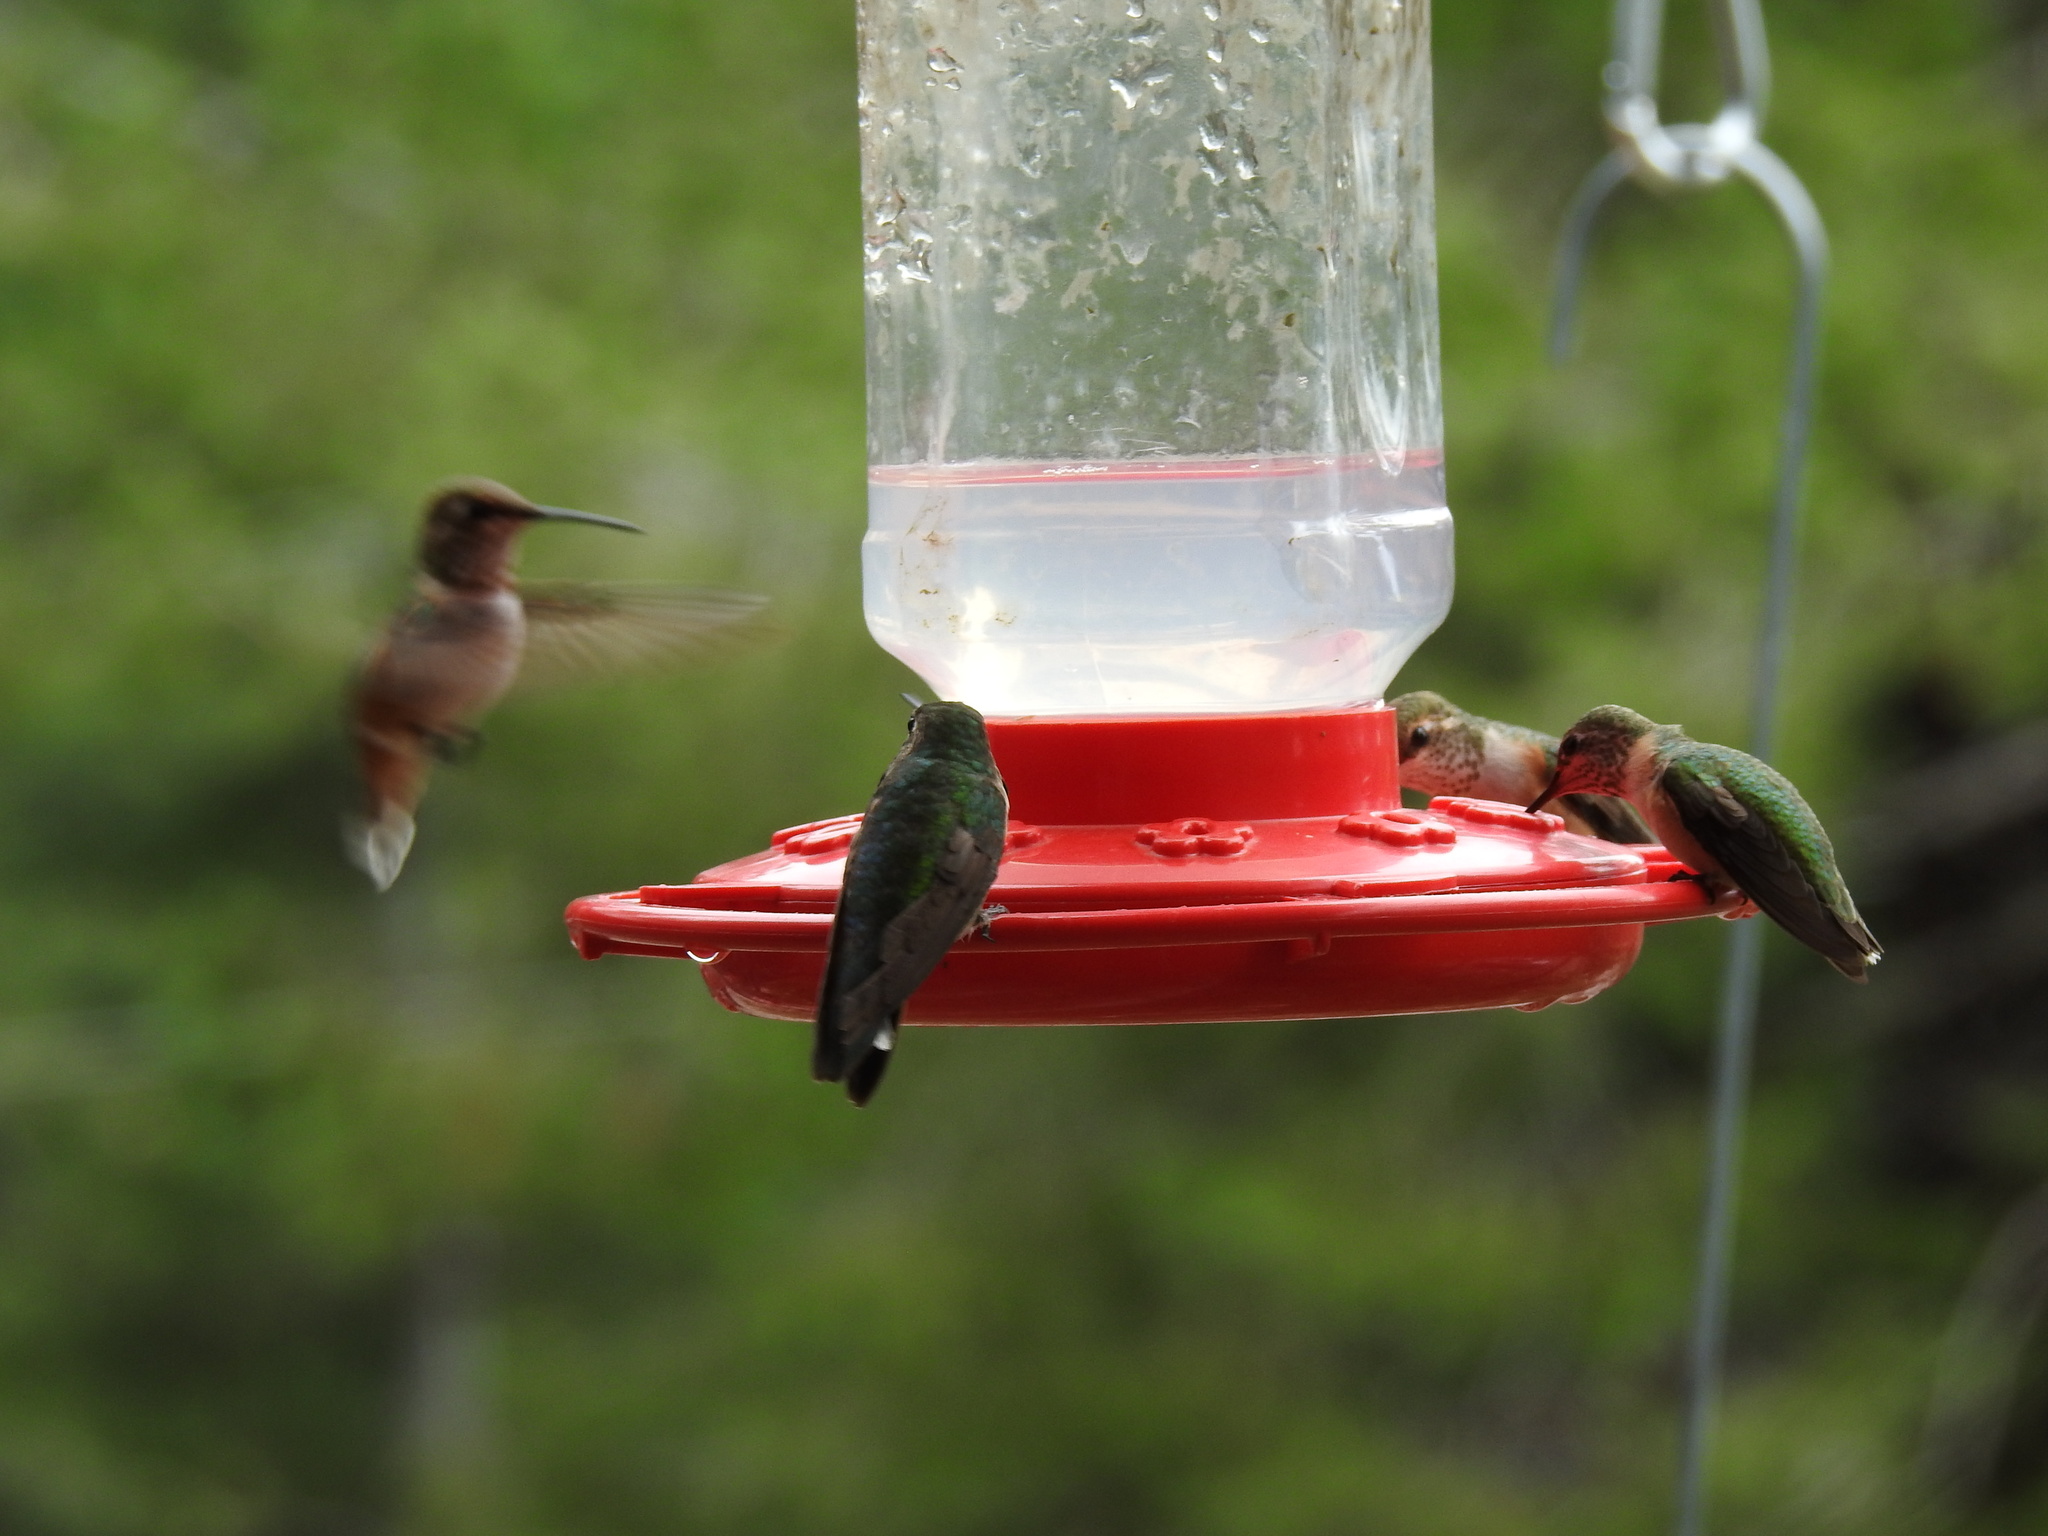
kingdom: Animalia
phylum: Chordata
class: Aves
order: Apodiformes
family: Trochilidae
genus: Selasphorus
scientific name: Selasphorus platycercus
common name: Broad-tailed hummingbird
